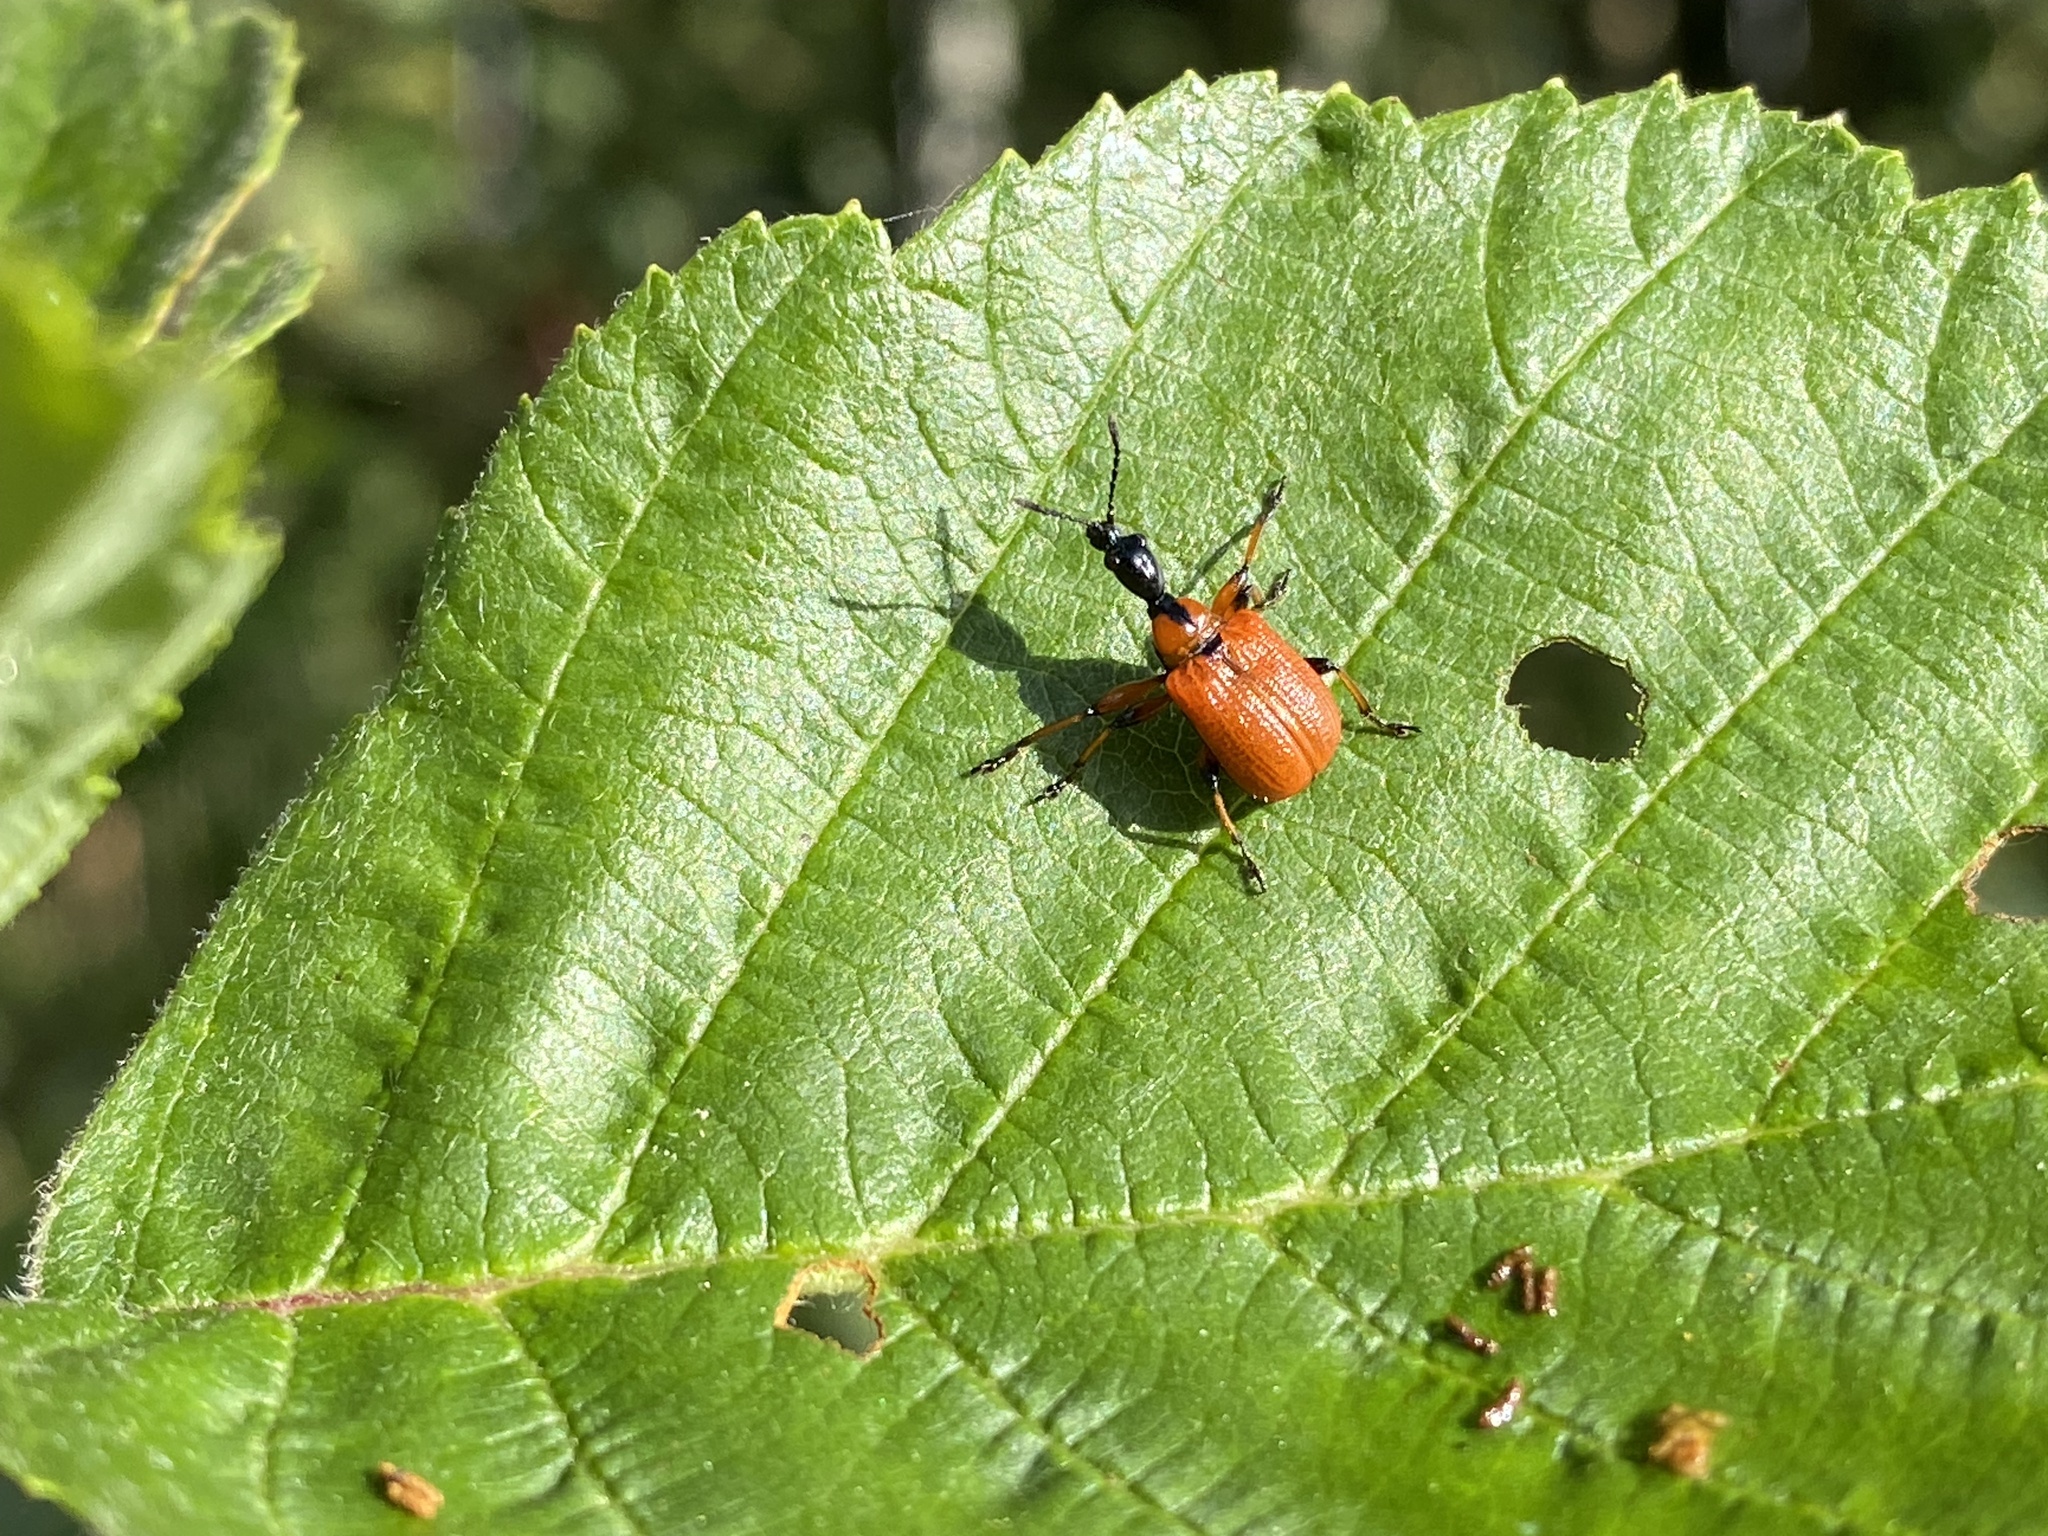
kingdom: Animalia
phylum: Arthropoda
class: Insecta
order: Coleoptera
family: Attelabidae
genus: Apoderus
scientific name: Apoderus coryli
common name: Hazel leaf roller
